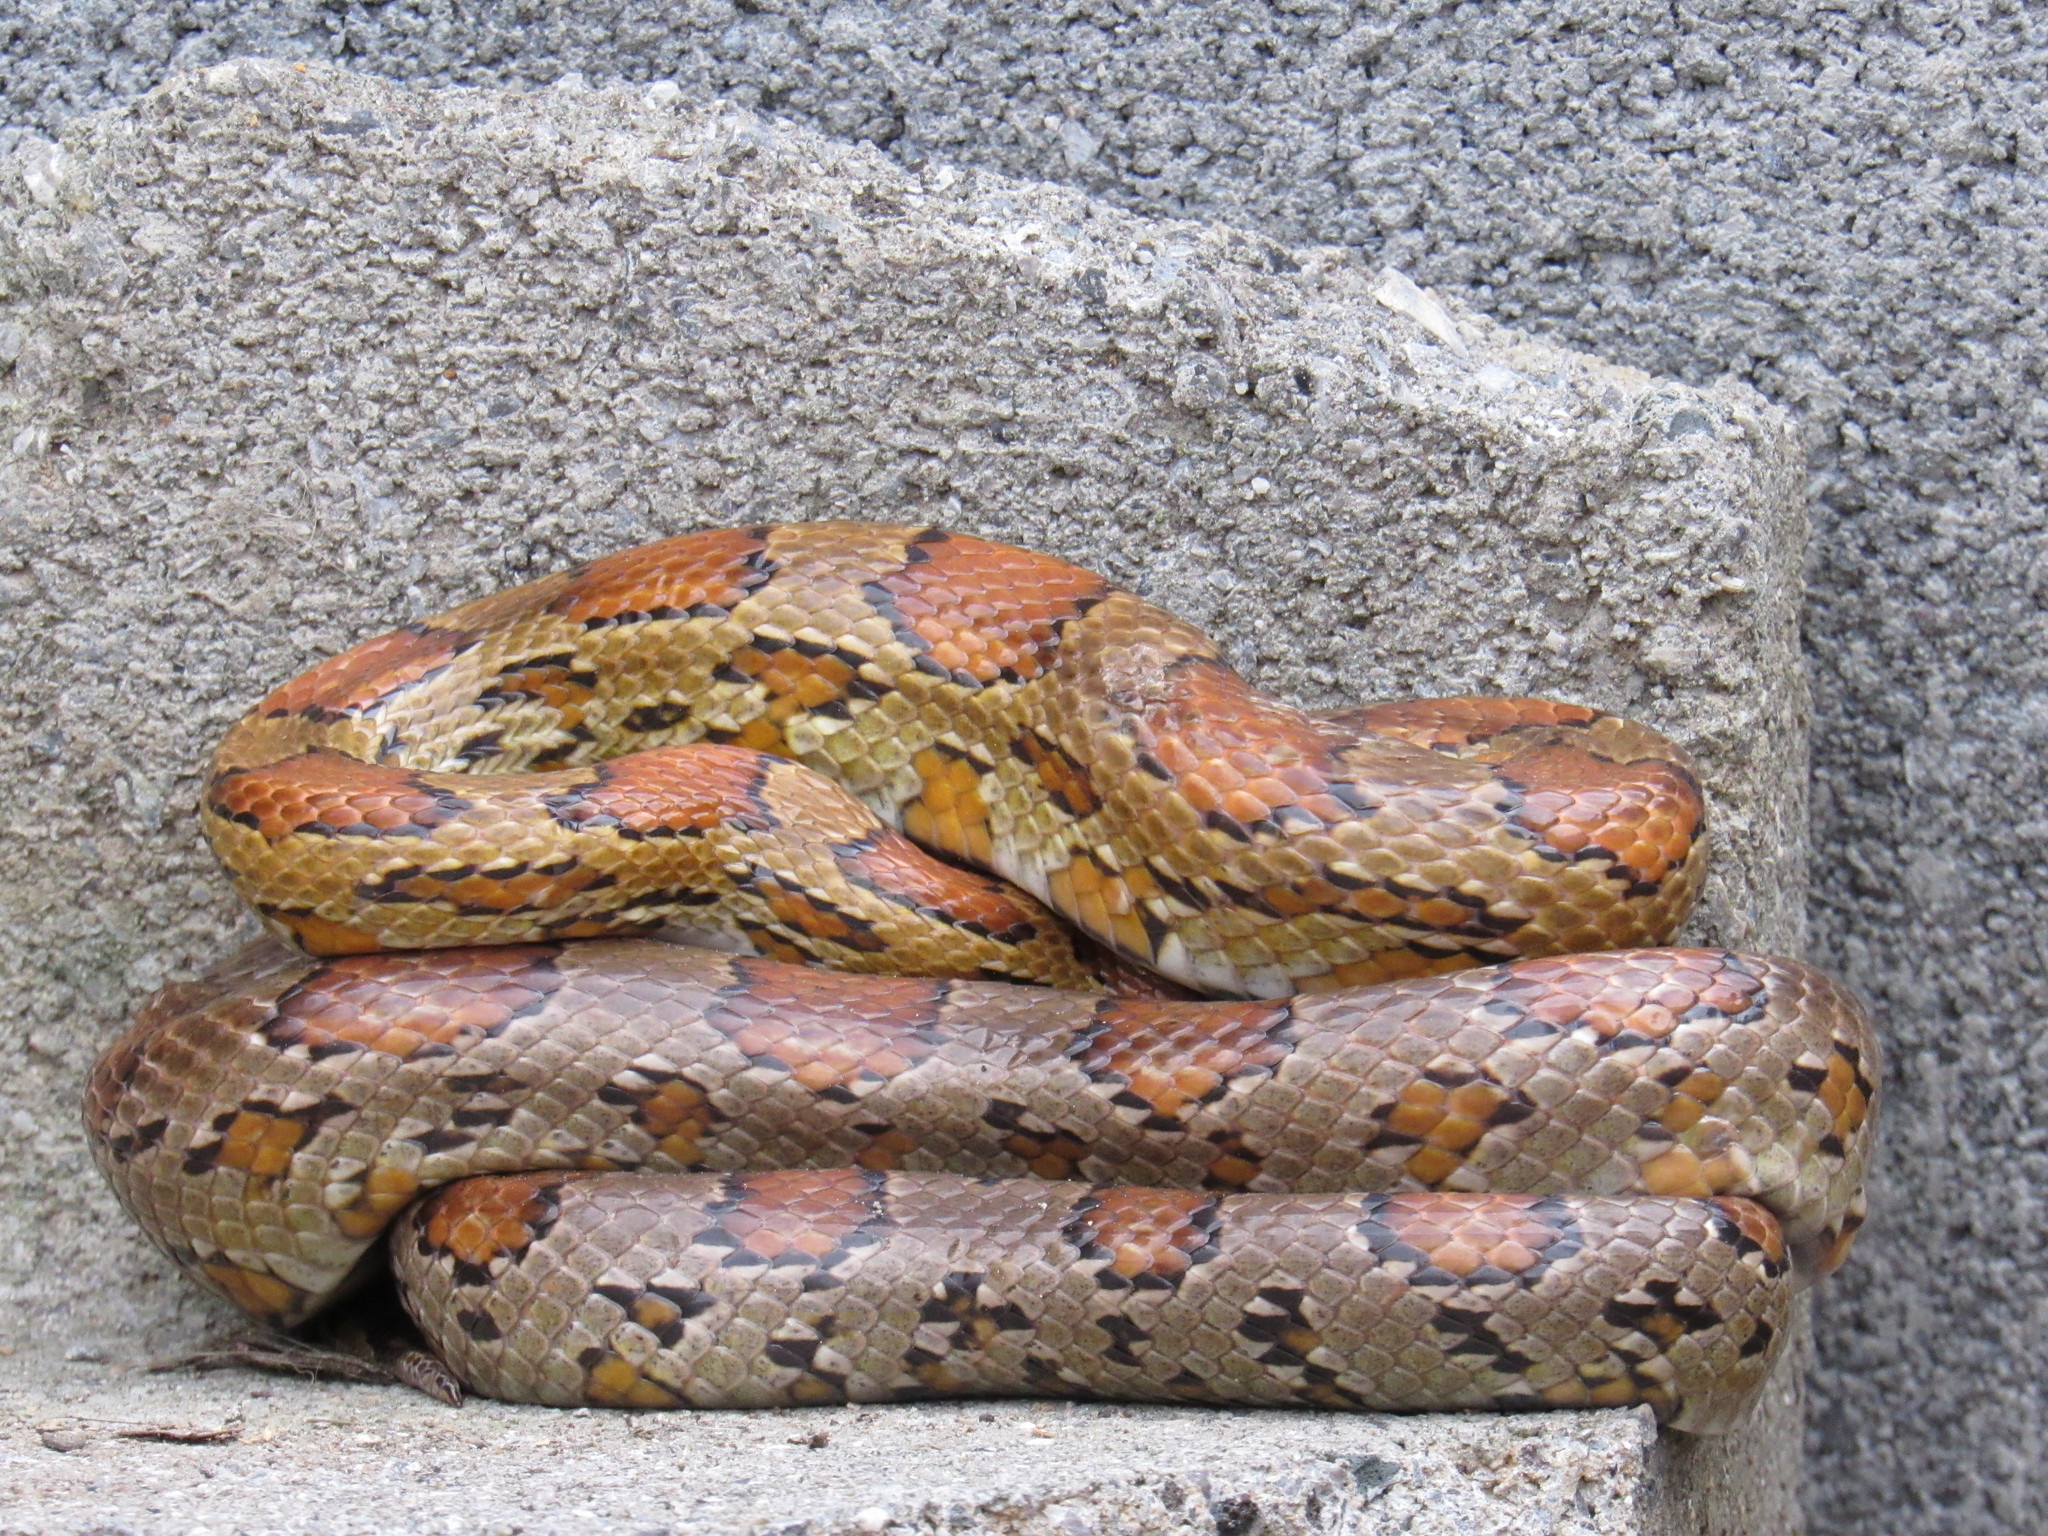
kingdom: Animalia
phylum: Chordata
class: Squamata
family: Colubridae
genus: Pantherophis
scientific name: Pantherophis guttatus
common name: Red cornsnake
